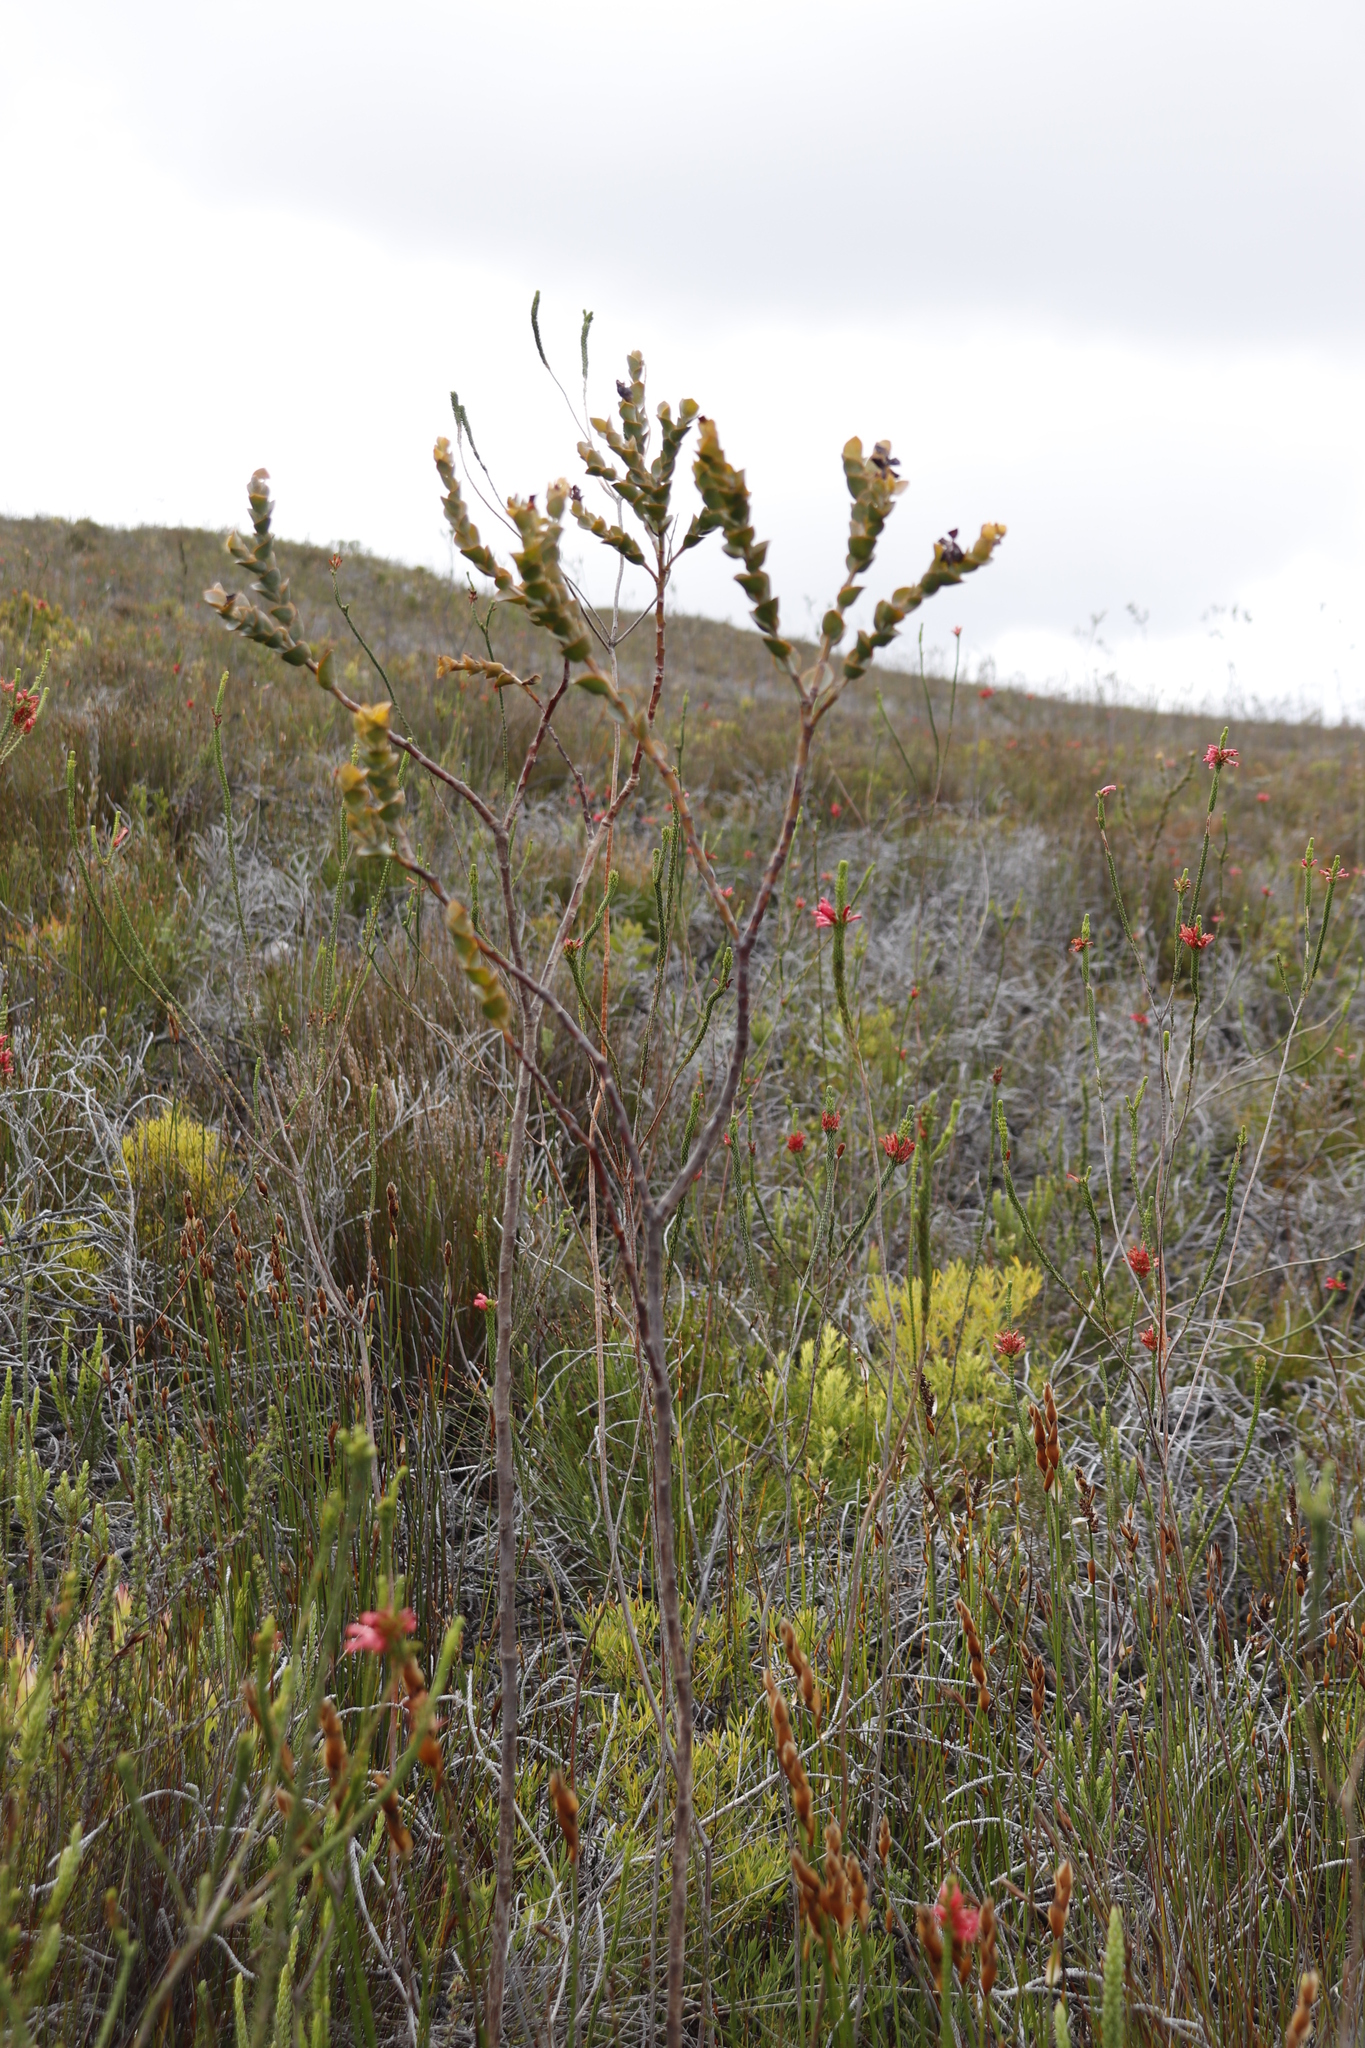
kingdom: Plantae
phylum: Tracheophyta
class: Magnoliopsida
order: Santalales
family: Thesiaceae
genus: Thesium
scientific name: Thesium euphorbioides
